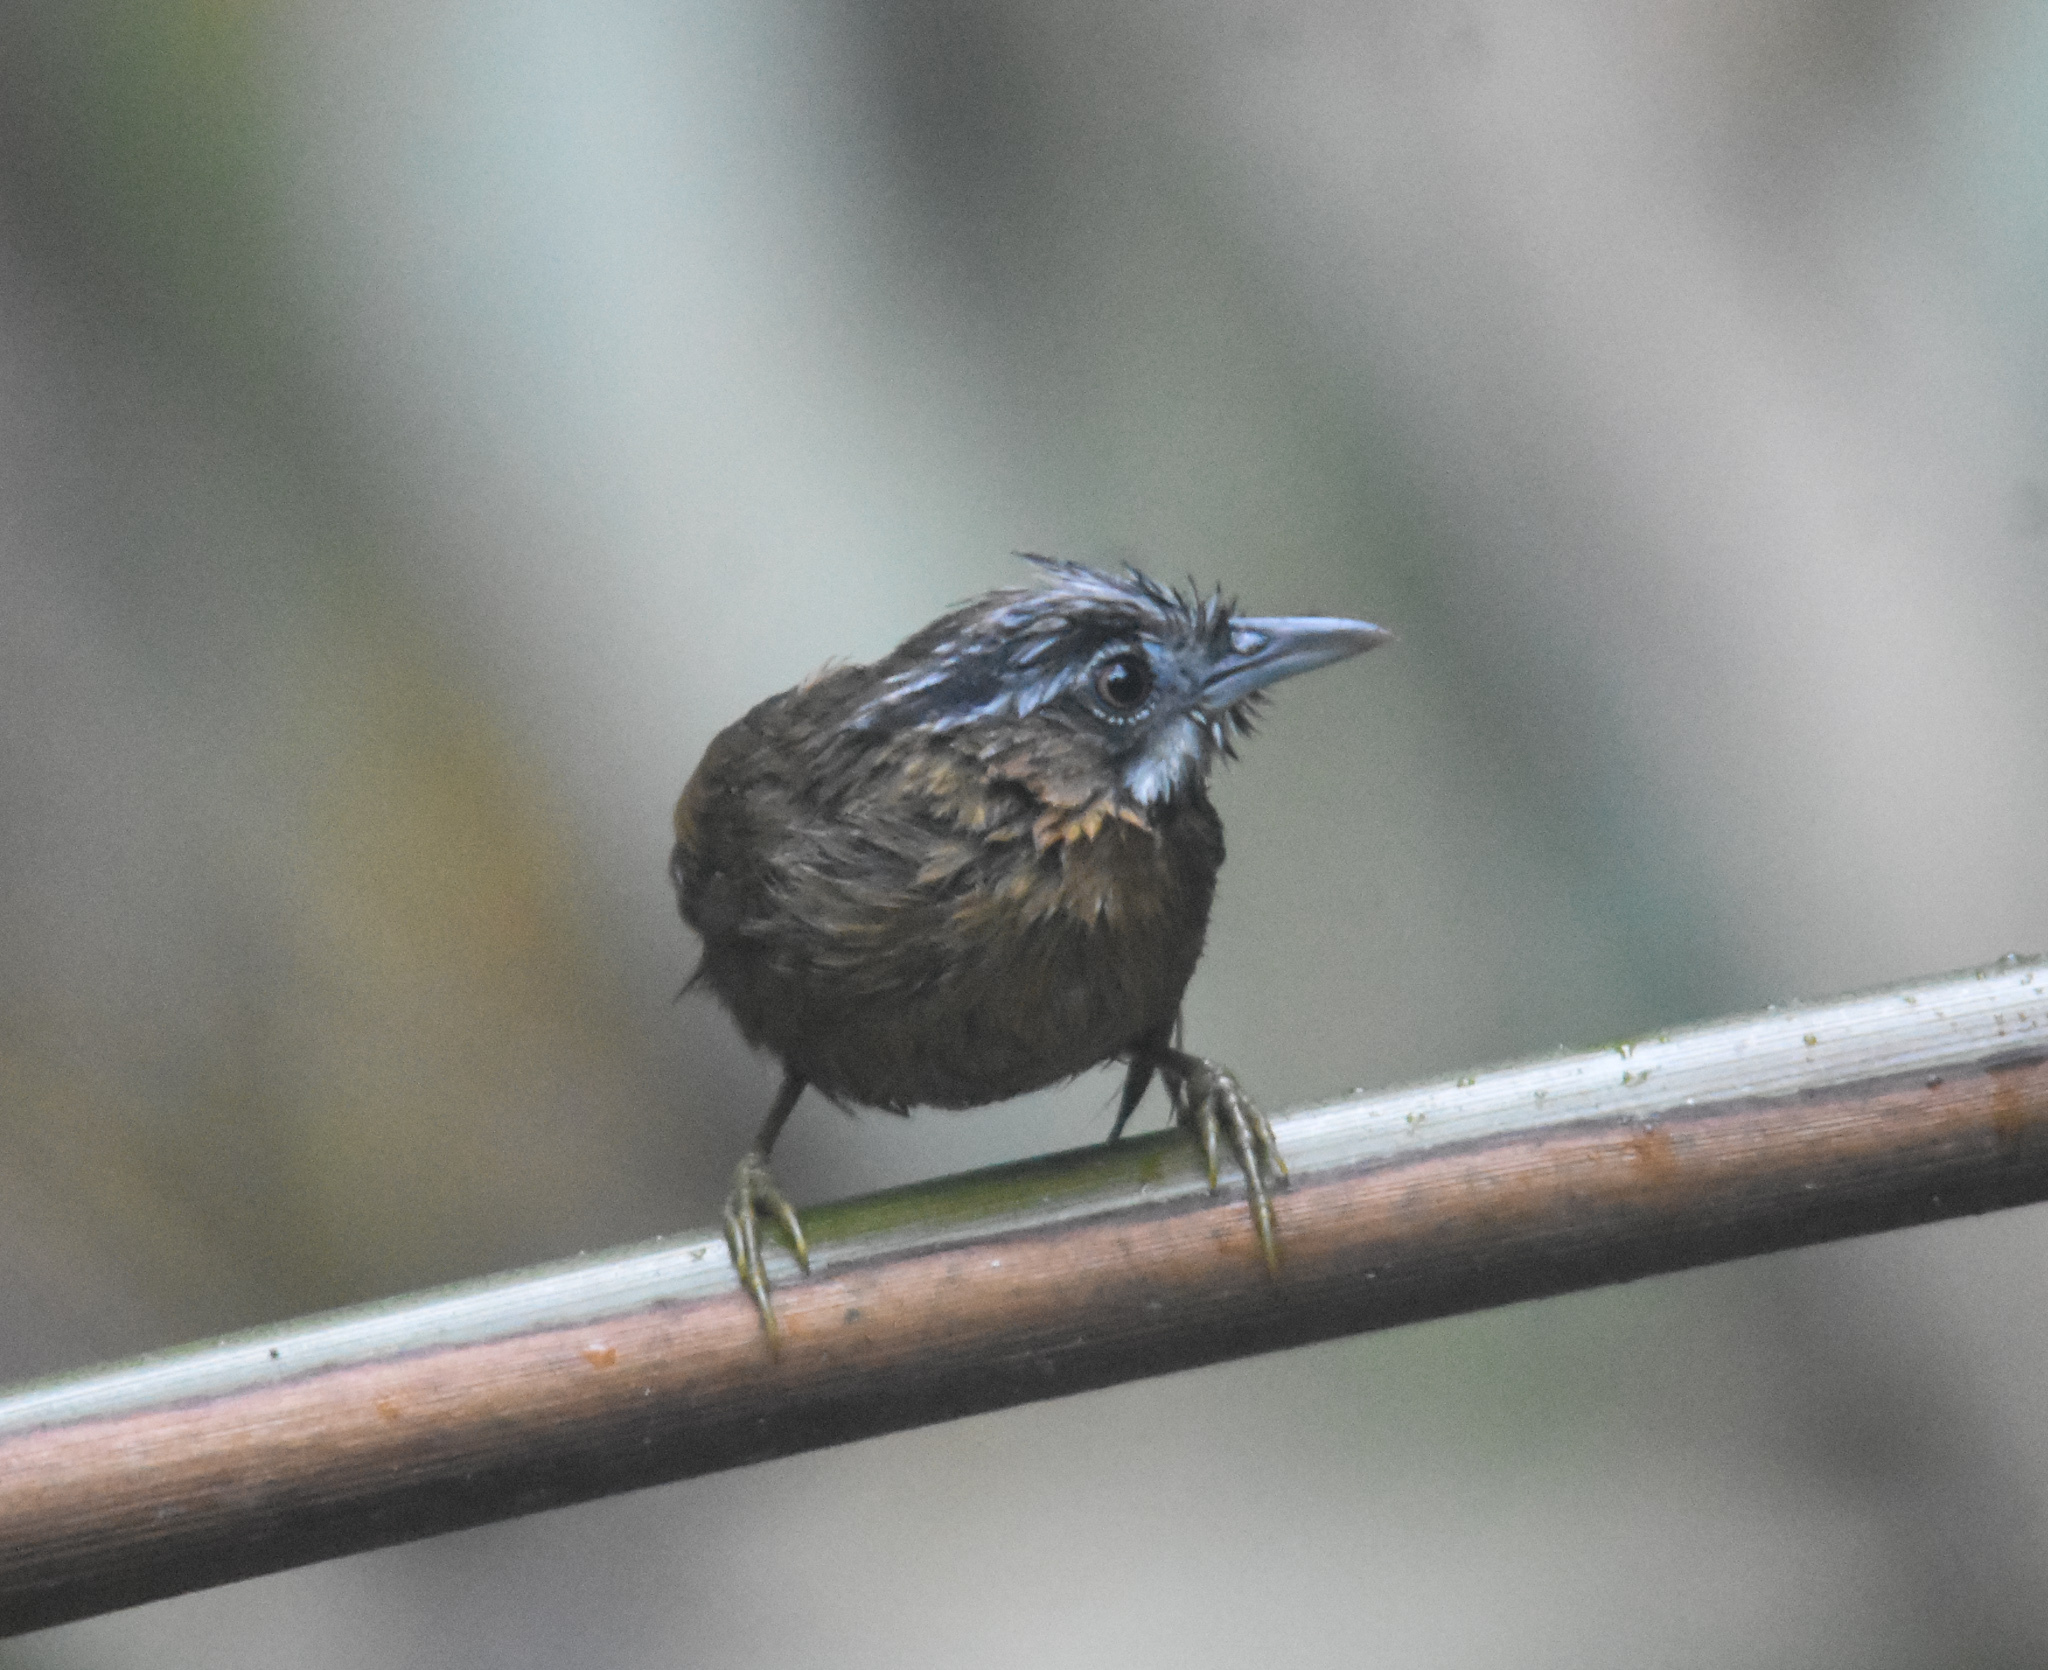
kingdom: Animalia
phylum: Chordata
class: Aves
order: Passeriformes
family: Timaliidae
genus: Stachyris
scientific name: Stachyris nigriceps
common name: Grey-throated babbler
